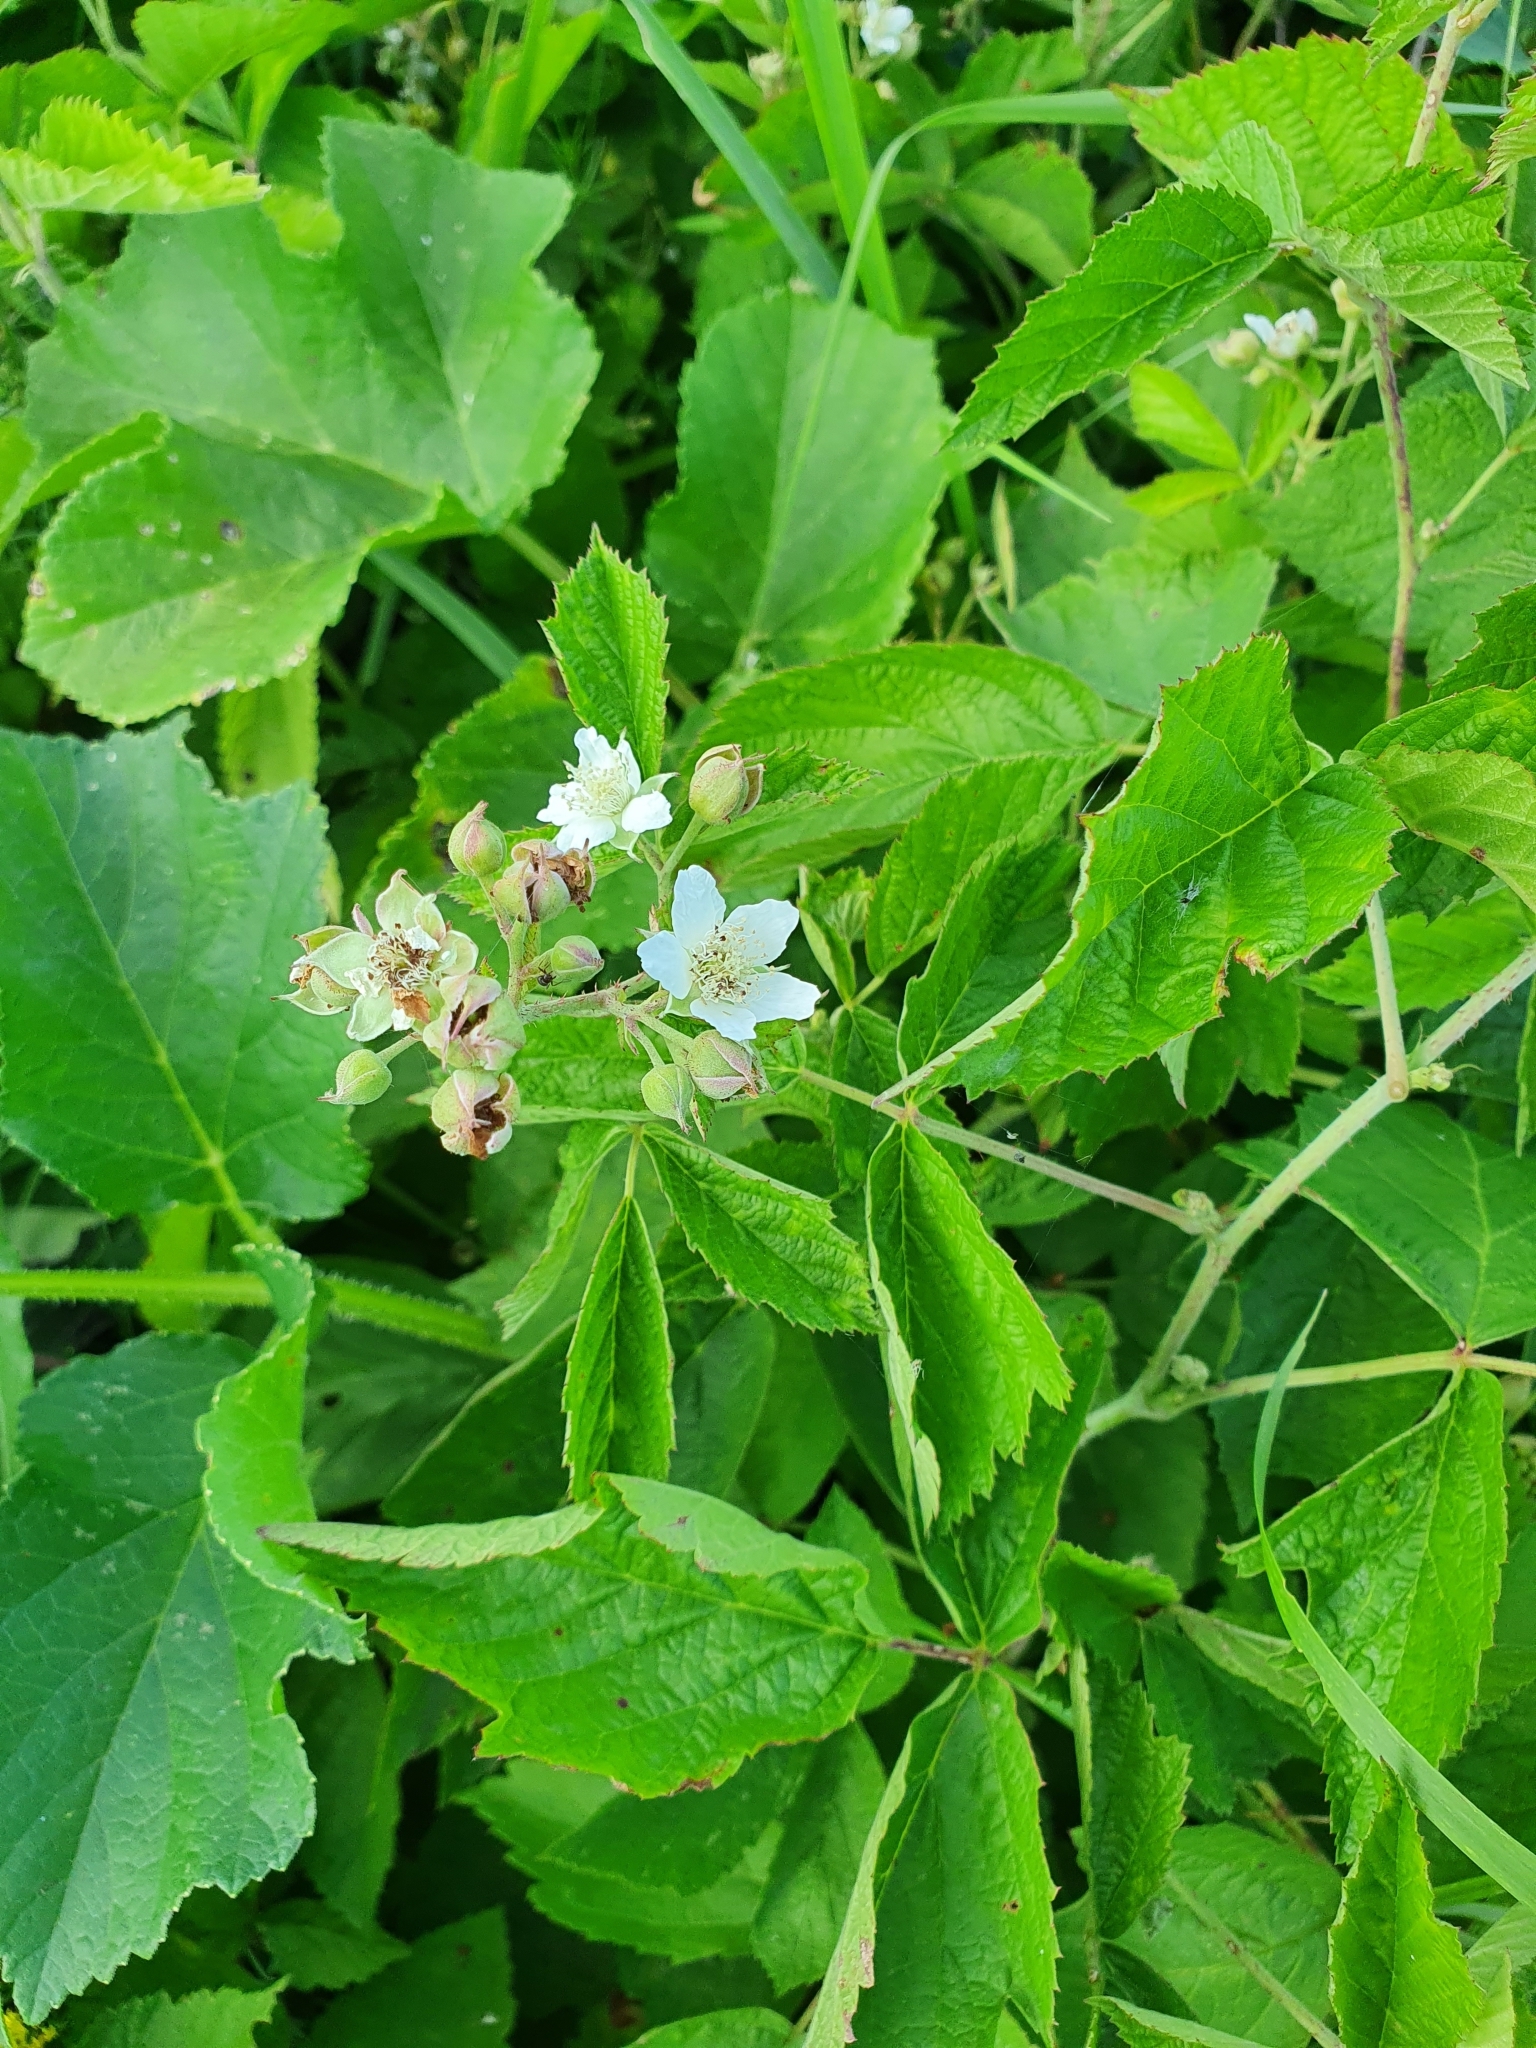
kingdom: Plantae
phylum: Tracheophyta
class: Magnoliopsida
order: Rosales
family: Rosaceae
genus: Rubus
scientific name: Rubus caesius
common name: Dewberry
